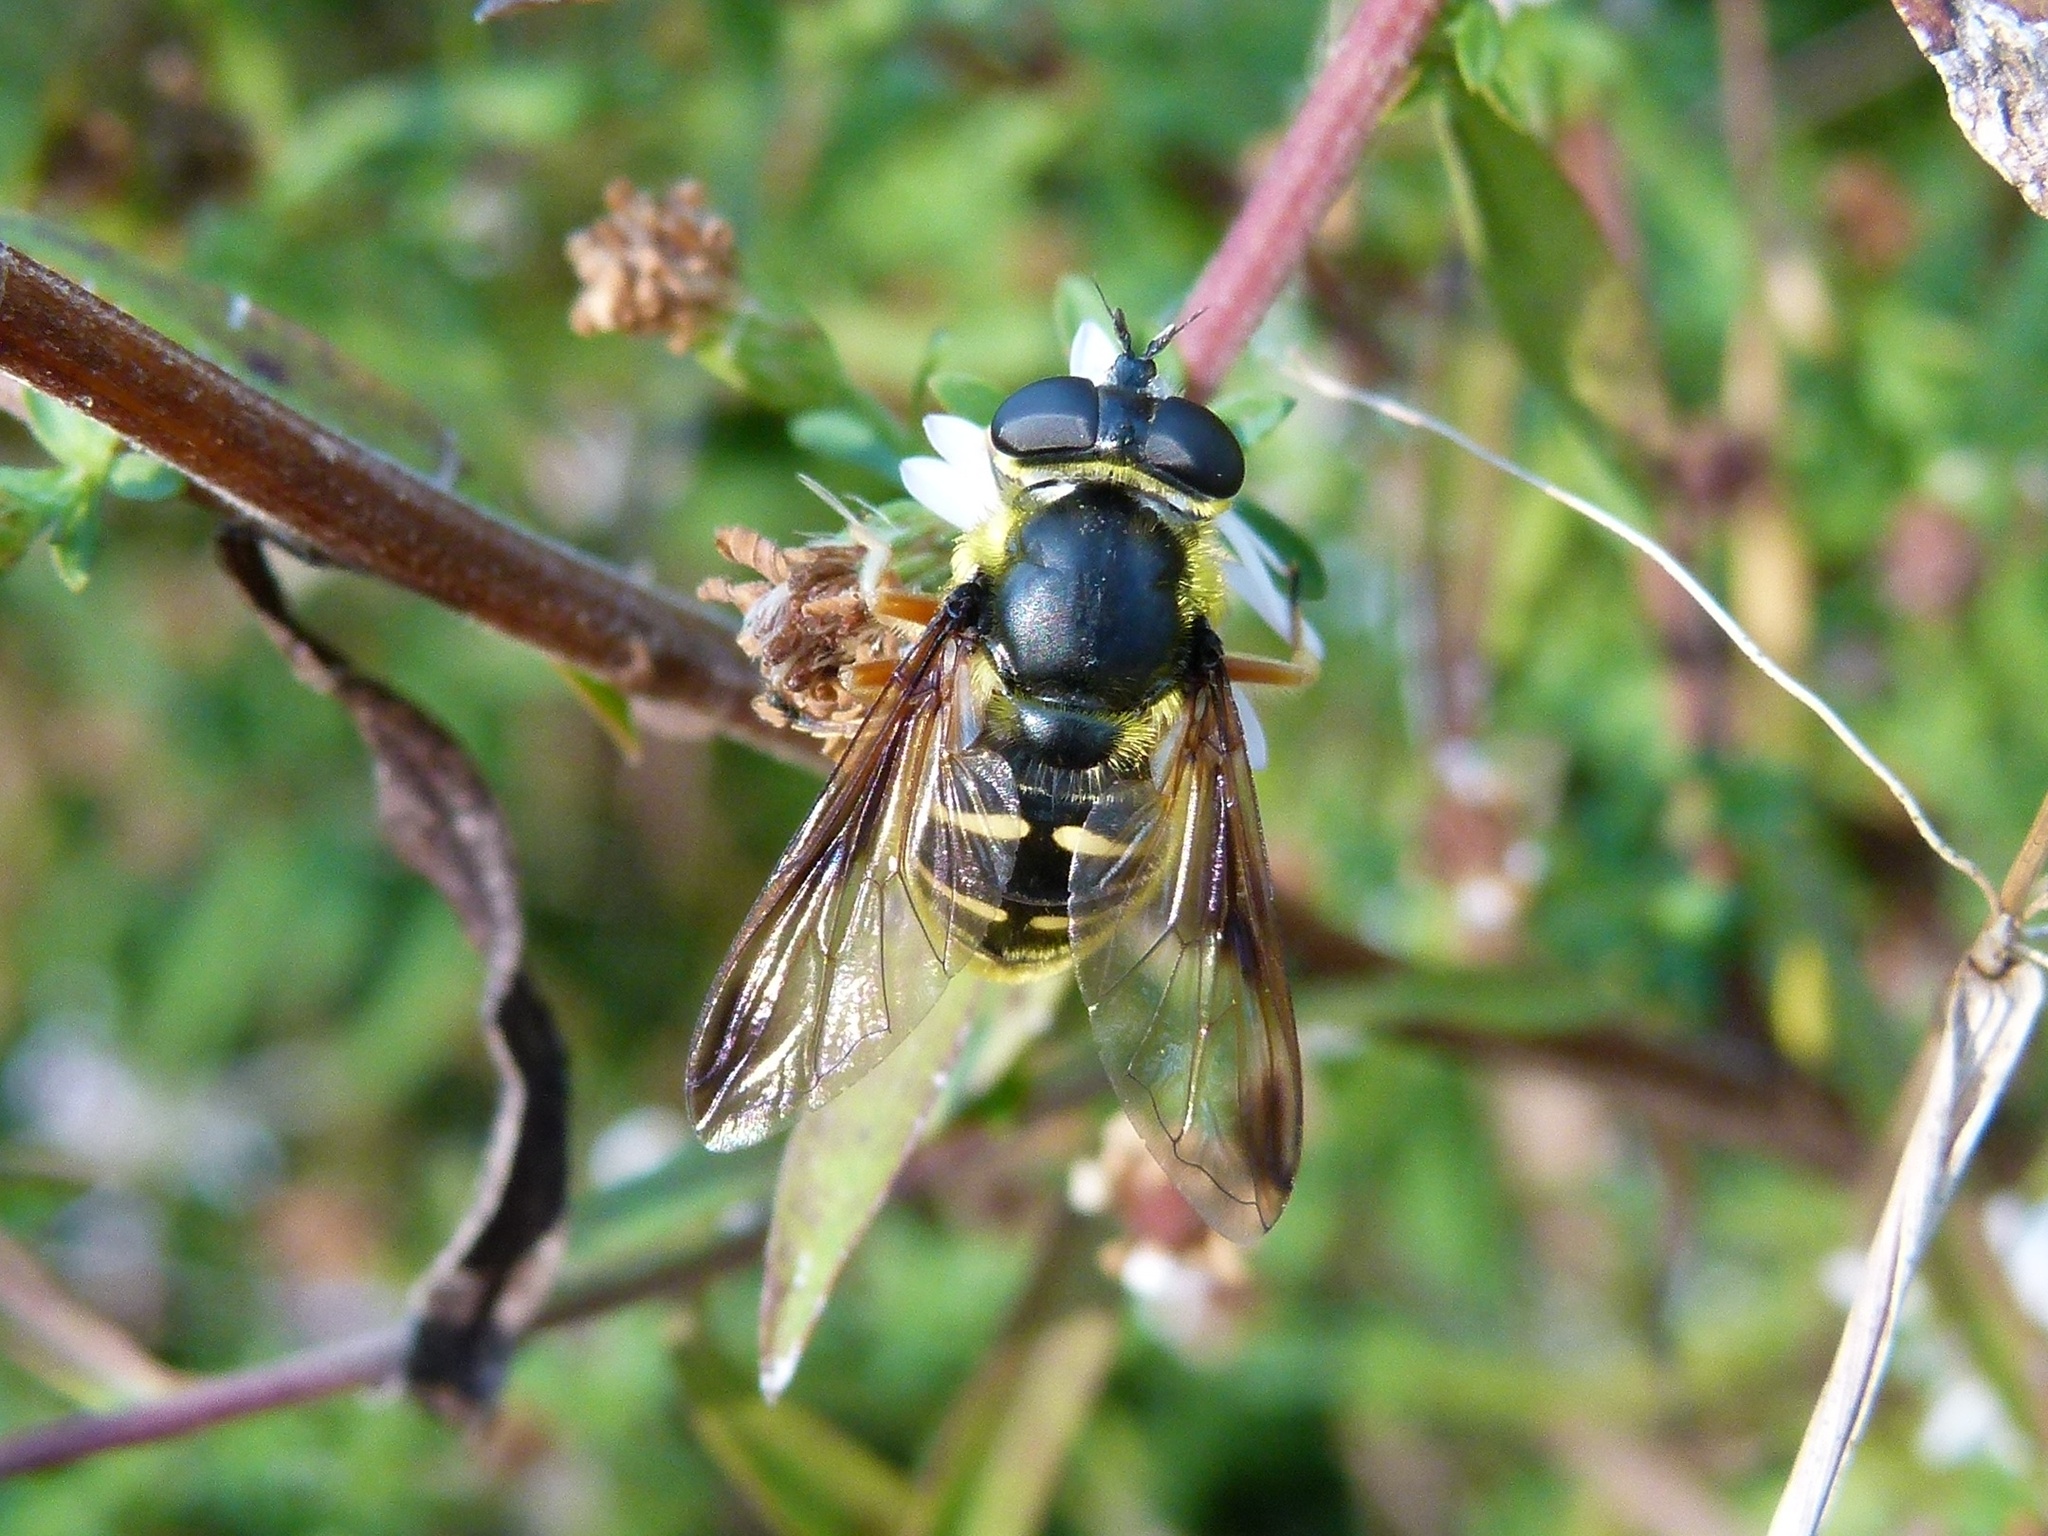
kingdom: Animalia
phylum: Arthropoda
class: Insecta
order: Diptera
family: Syrphidae
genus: Sericomyia
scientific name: Sericomyia chrysotoxoides
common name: Oblique-banded pond fly
